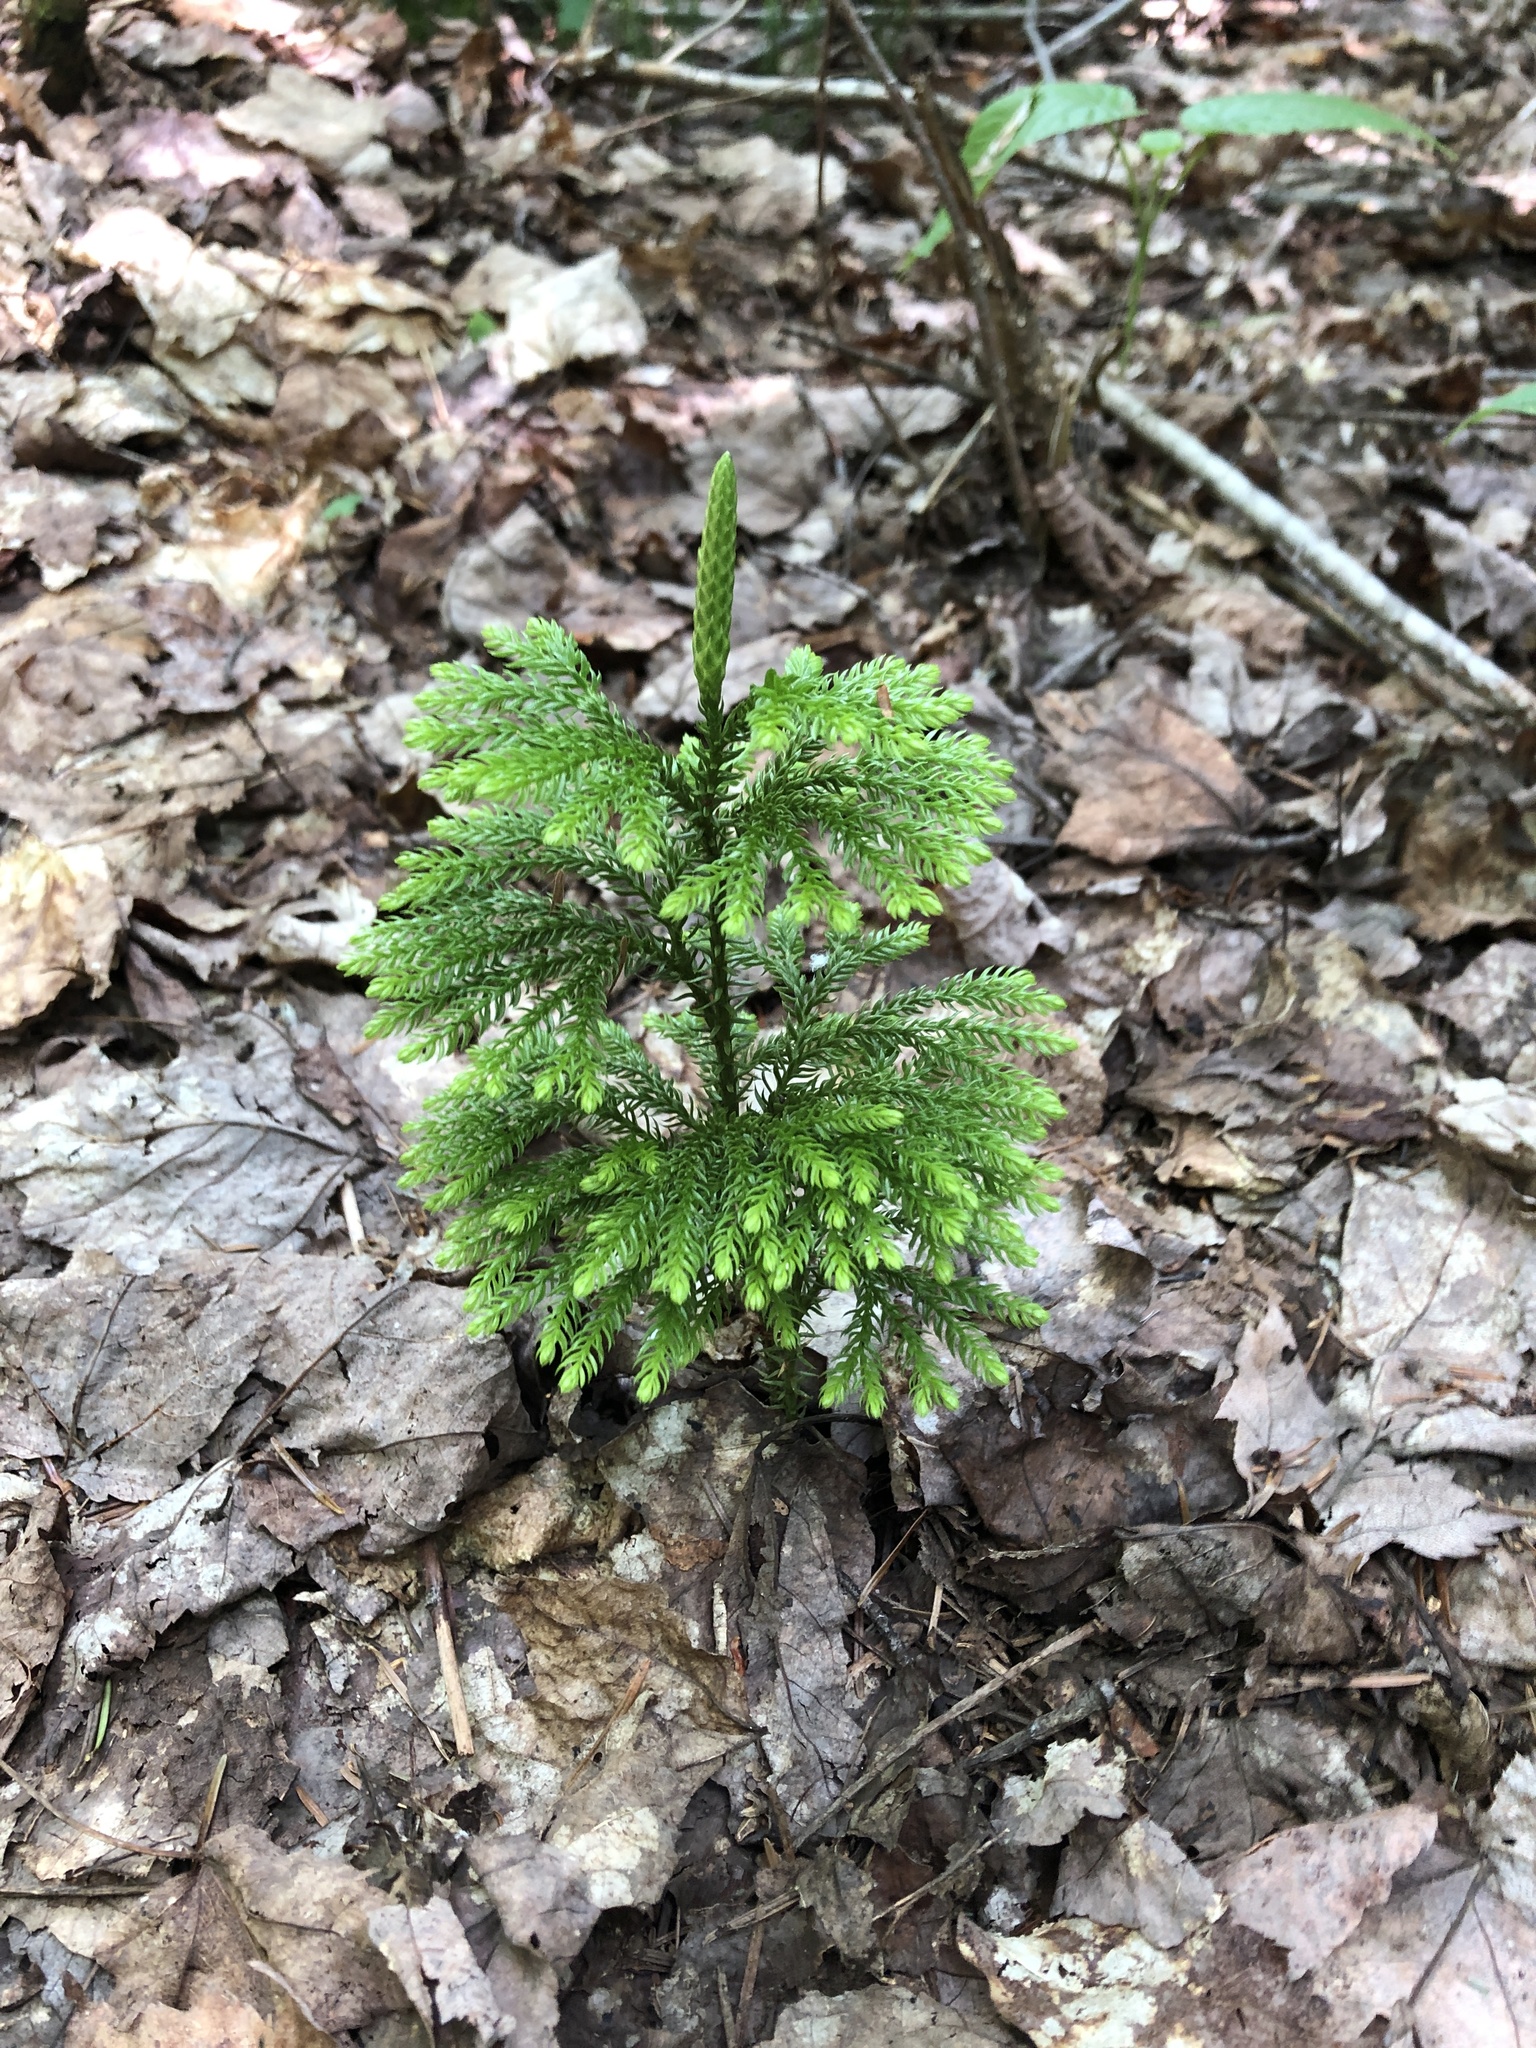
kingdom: Plantae
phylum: Tracheophyta
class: Lycopodiopsida
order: Lycopodiales
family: Lycopodiaceae
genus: Dendrolycopodium
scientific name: Dendrolycopodium dendroideum
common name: Northern tree-clubmoss
